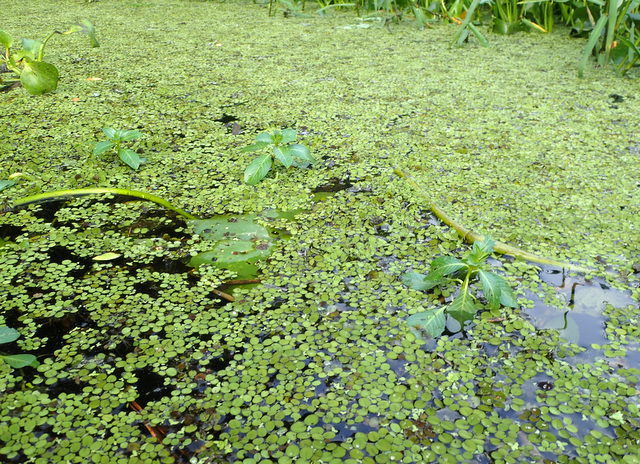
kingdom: Plantae
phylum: Tracheophyta
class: Polypodiopsida
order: Salviniales
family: Salviniaceae
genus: Salvinia
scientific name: Salvinia minima
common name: Water spangles
